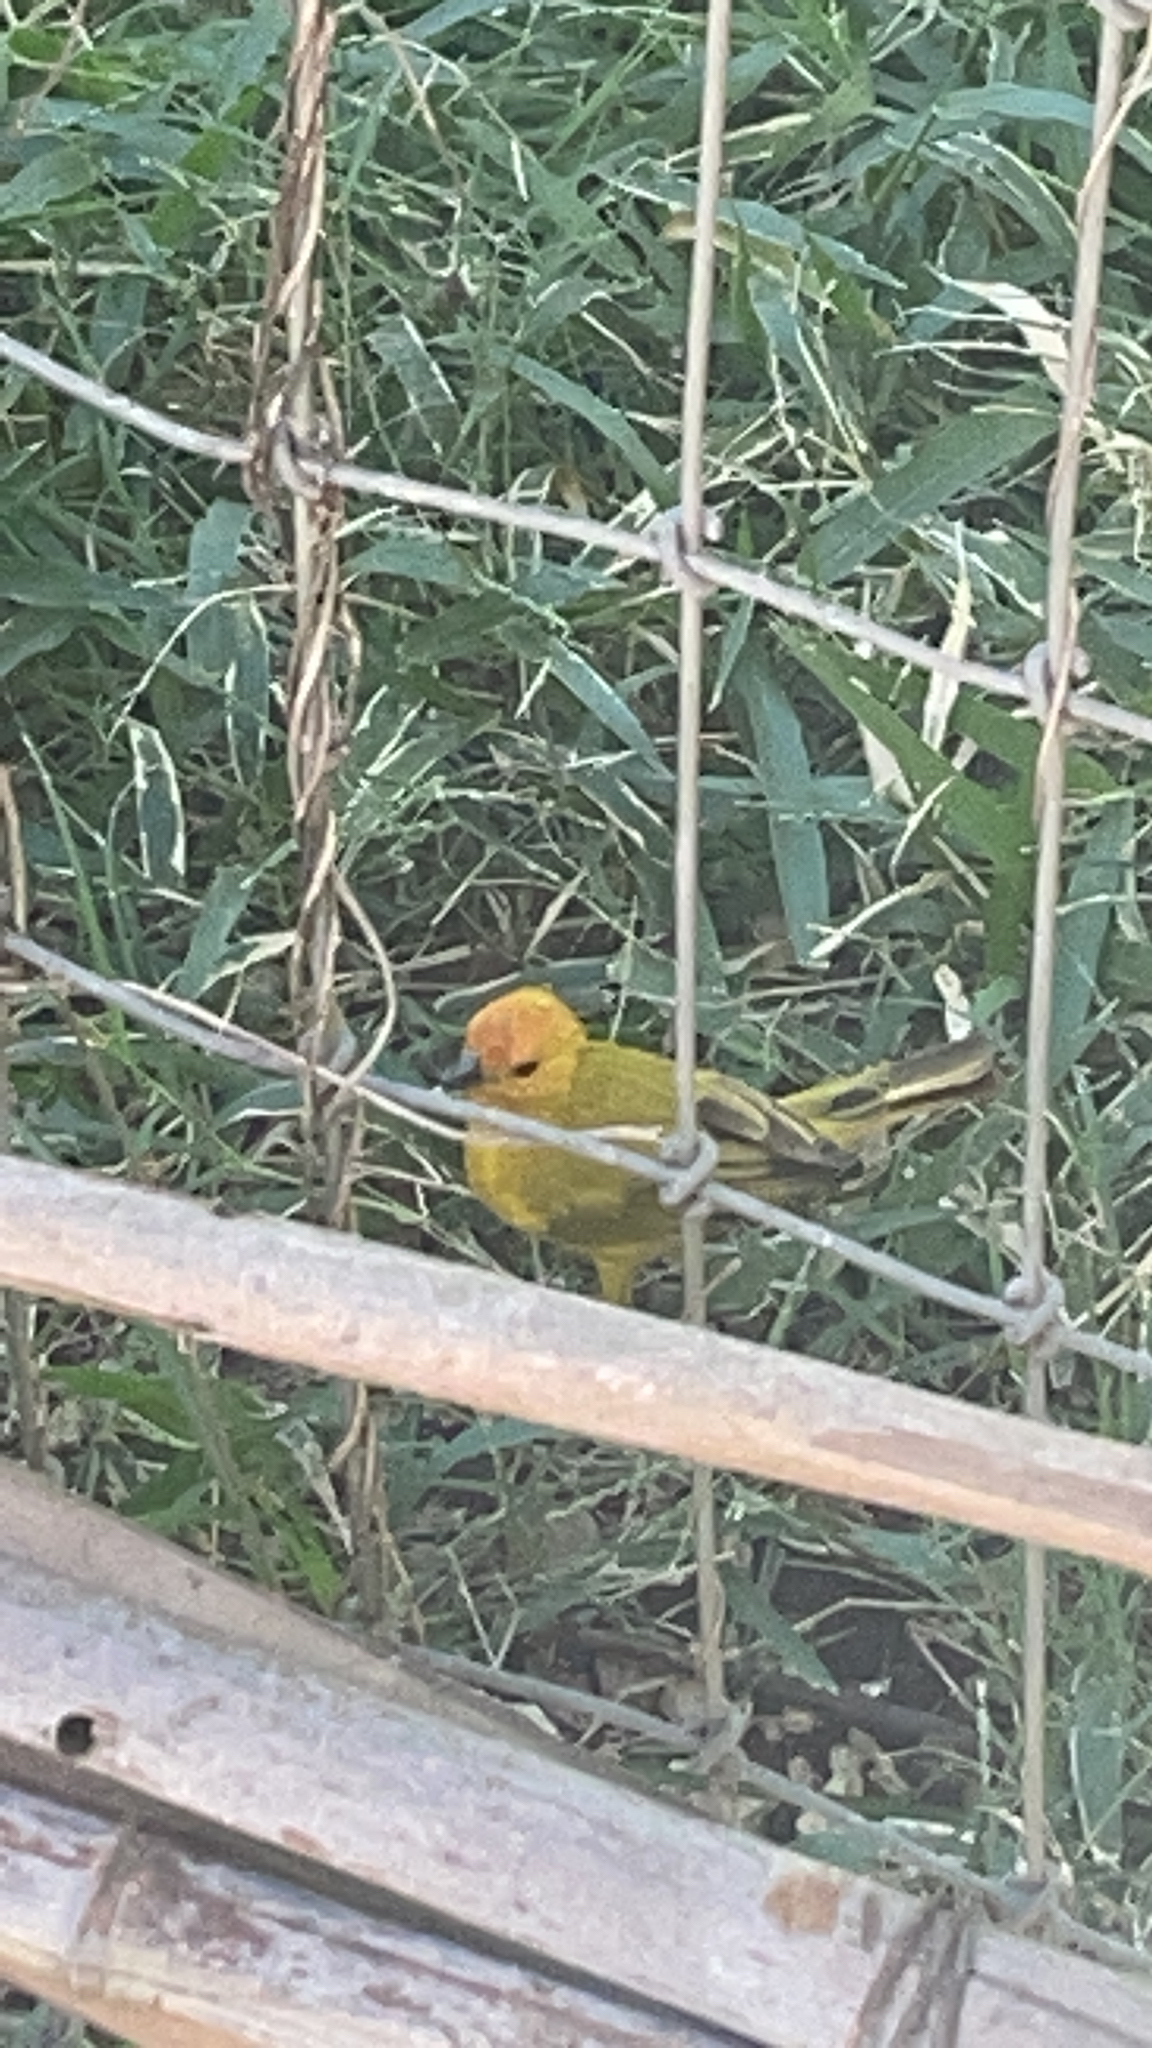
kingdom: Animalia
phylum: Chordata
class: Aves
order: Passeriformes
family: Thraupidae
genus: Sicalis
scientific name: Sicalis flaveola
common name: Saffron finch
